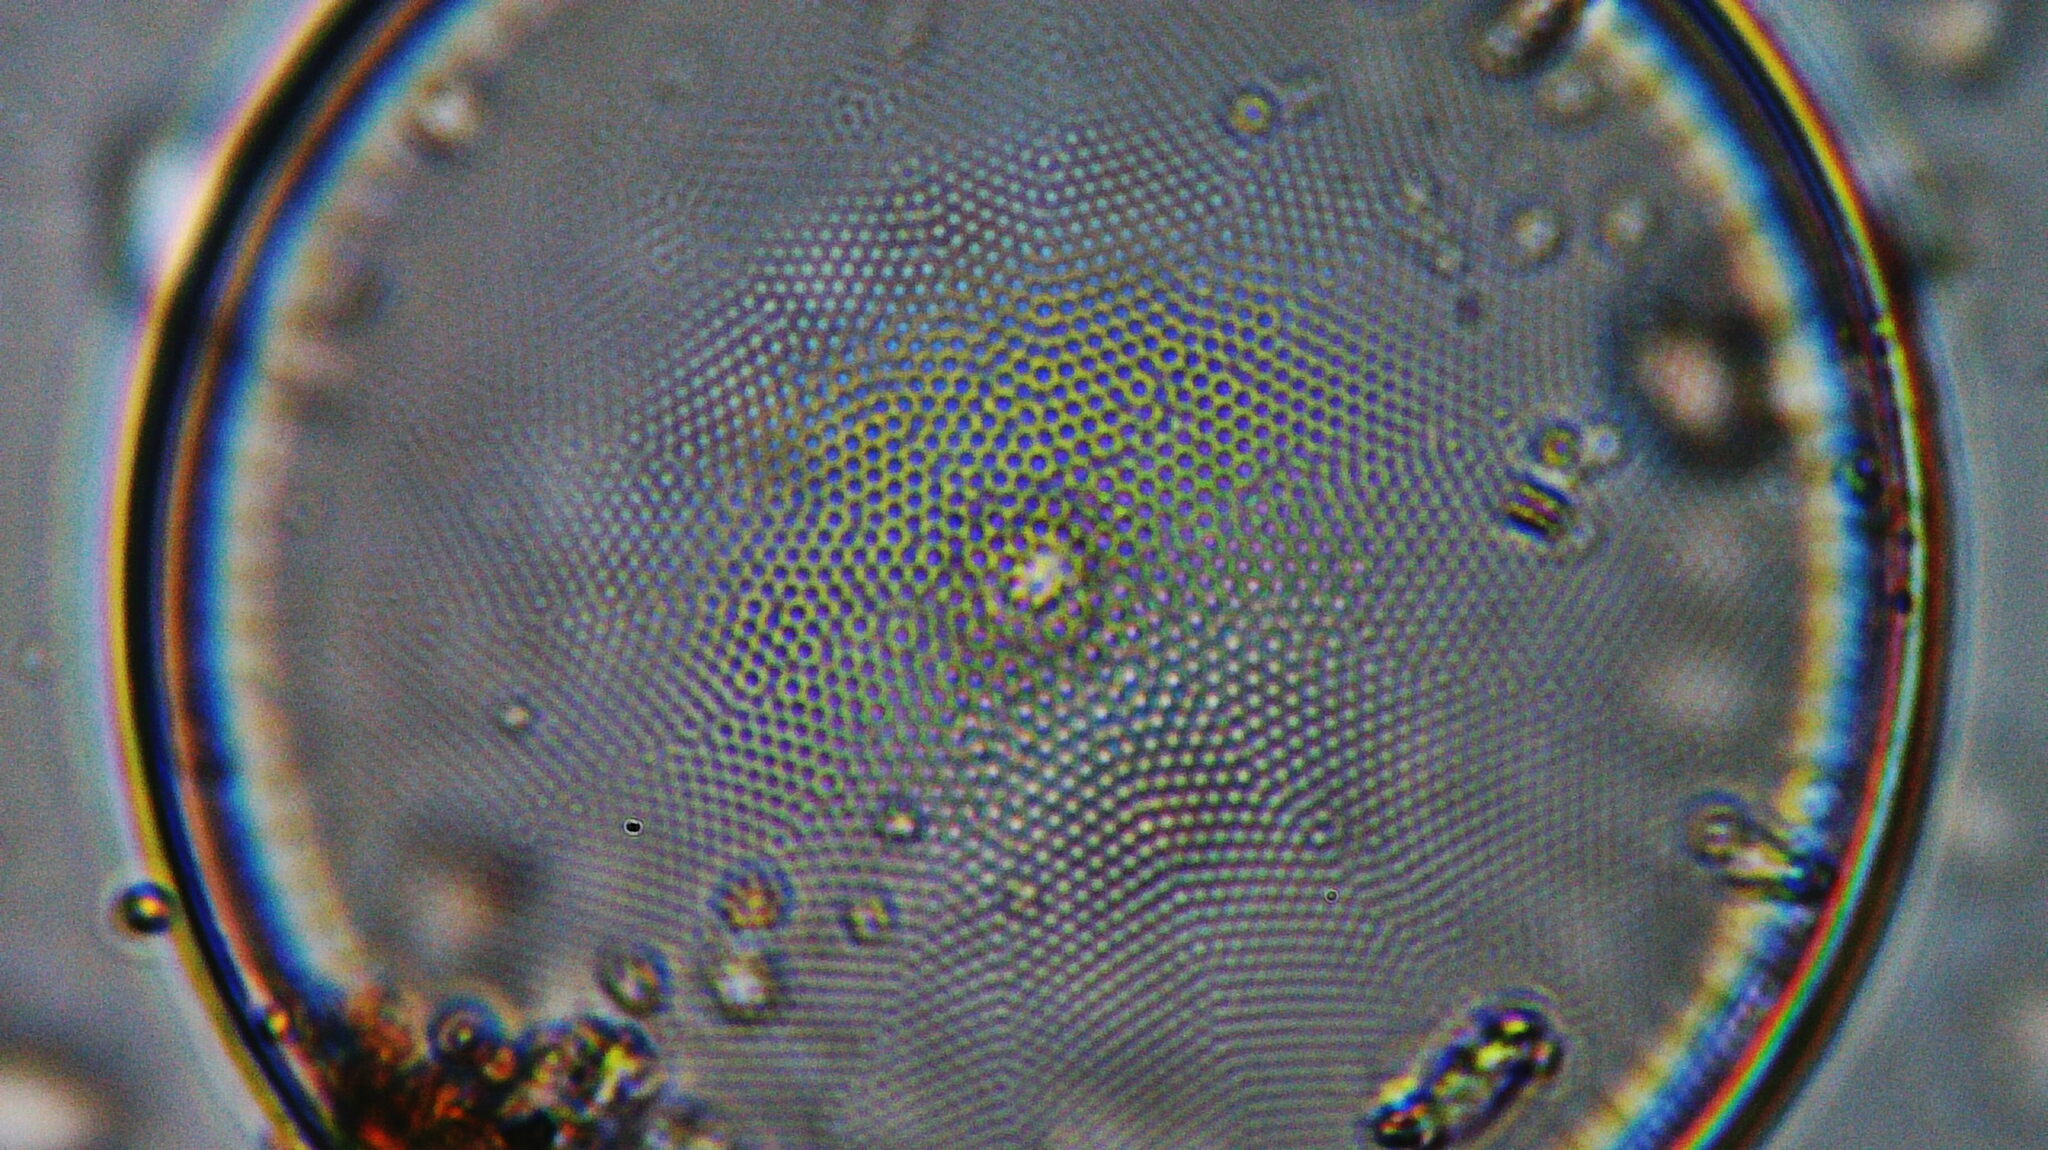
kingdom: Chromista
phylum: Ochrophyta
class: Bacillariophyceae
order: Thalassiosirales
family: Thalassiosiraceae
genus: Thalassiosira
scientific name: Thalassiosira nordenskioeldii
